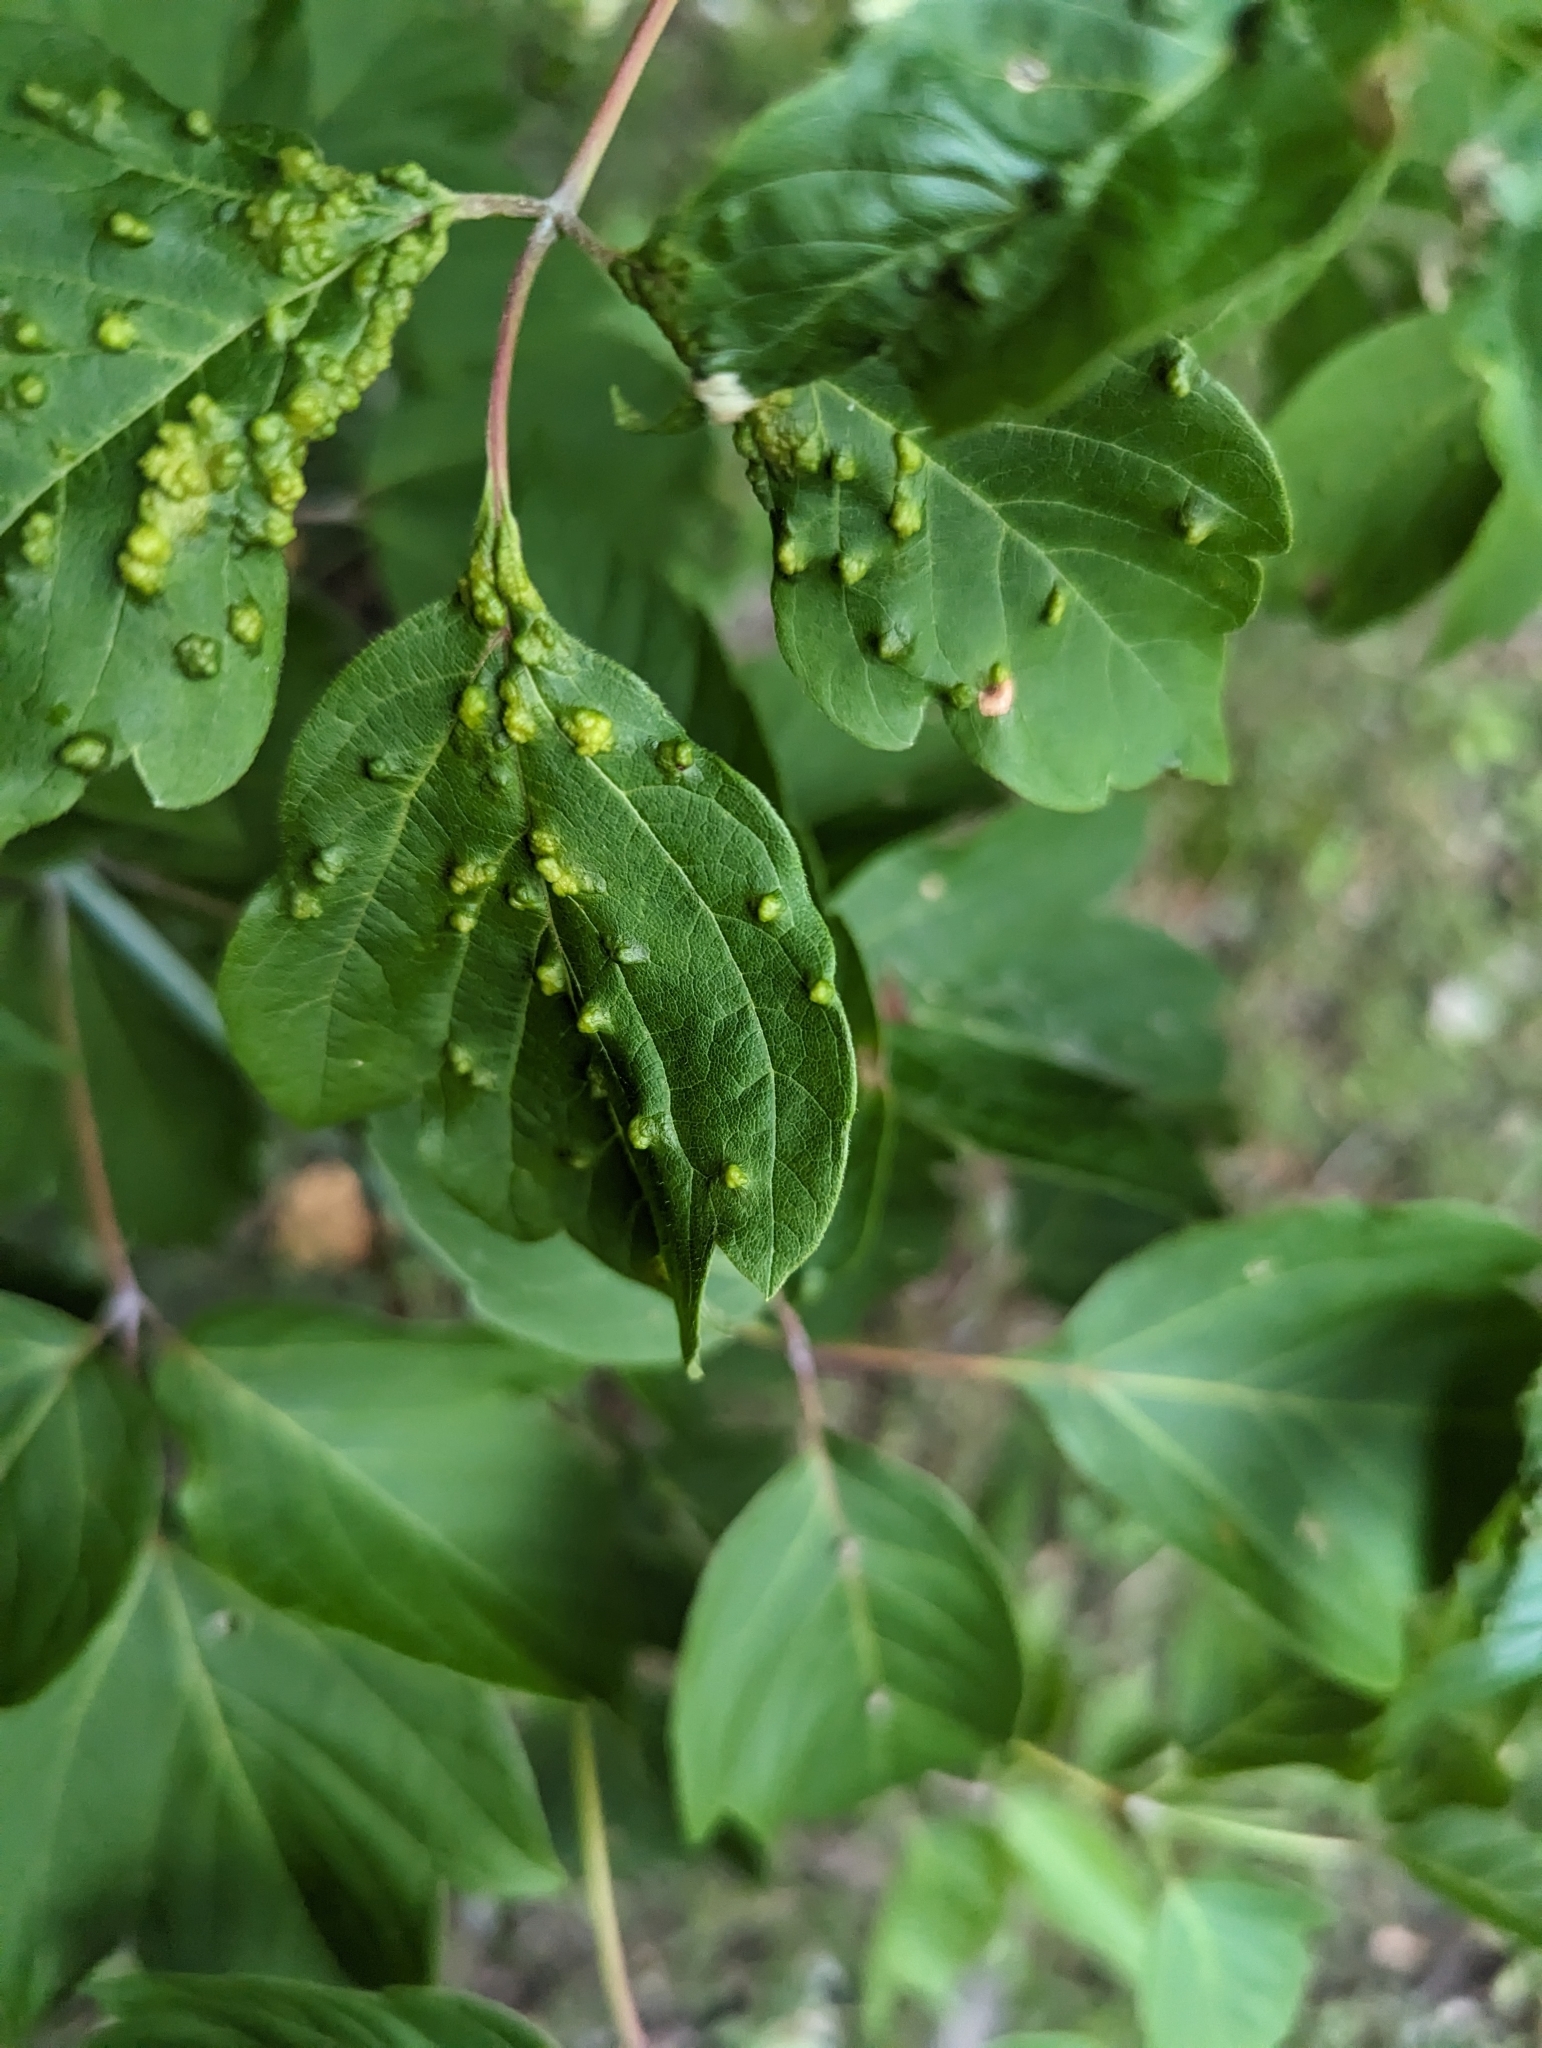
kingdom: Animalia
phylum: Arthropoda
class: Arachnida
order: Trombidiformes
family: Eriophyidae
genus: Aceria
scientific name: Aceria
